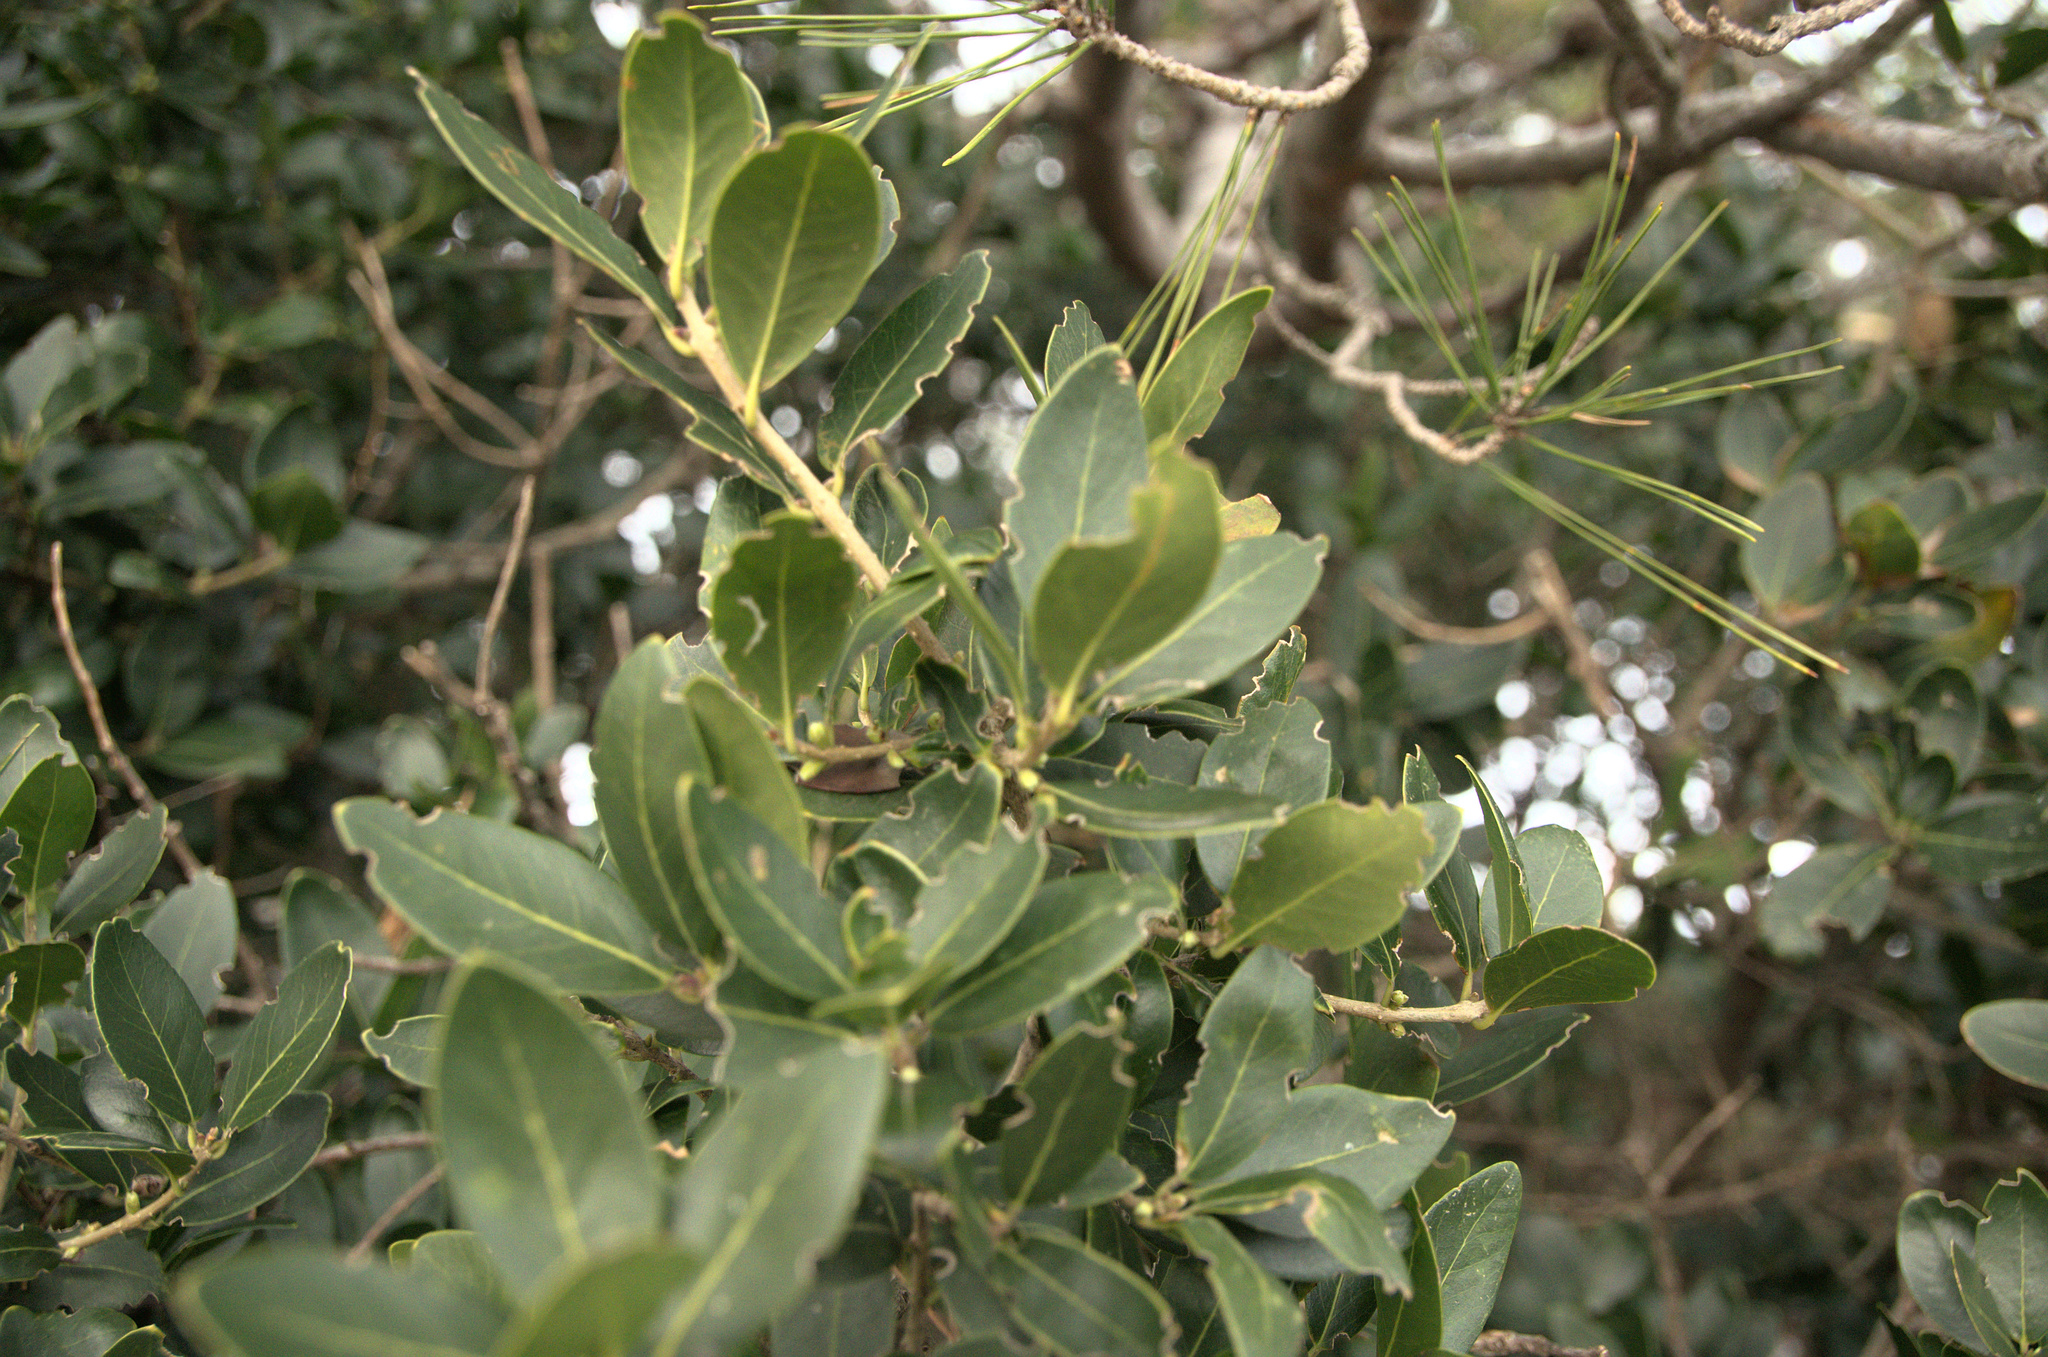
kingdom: Plantae
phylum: Tracheophyta
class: Magnoliopsida
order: Lamiales
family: Oleaceae
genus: Phillyrea
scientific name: Phillyrea latifolia
